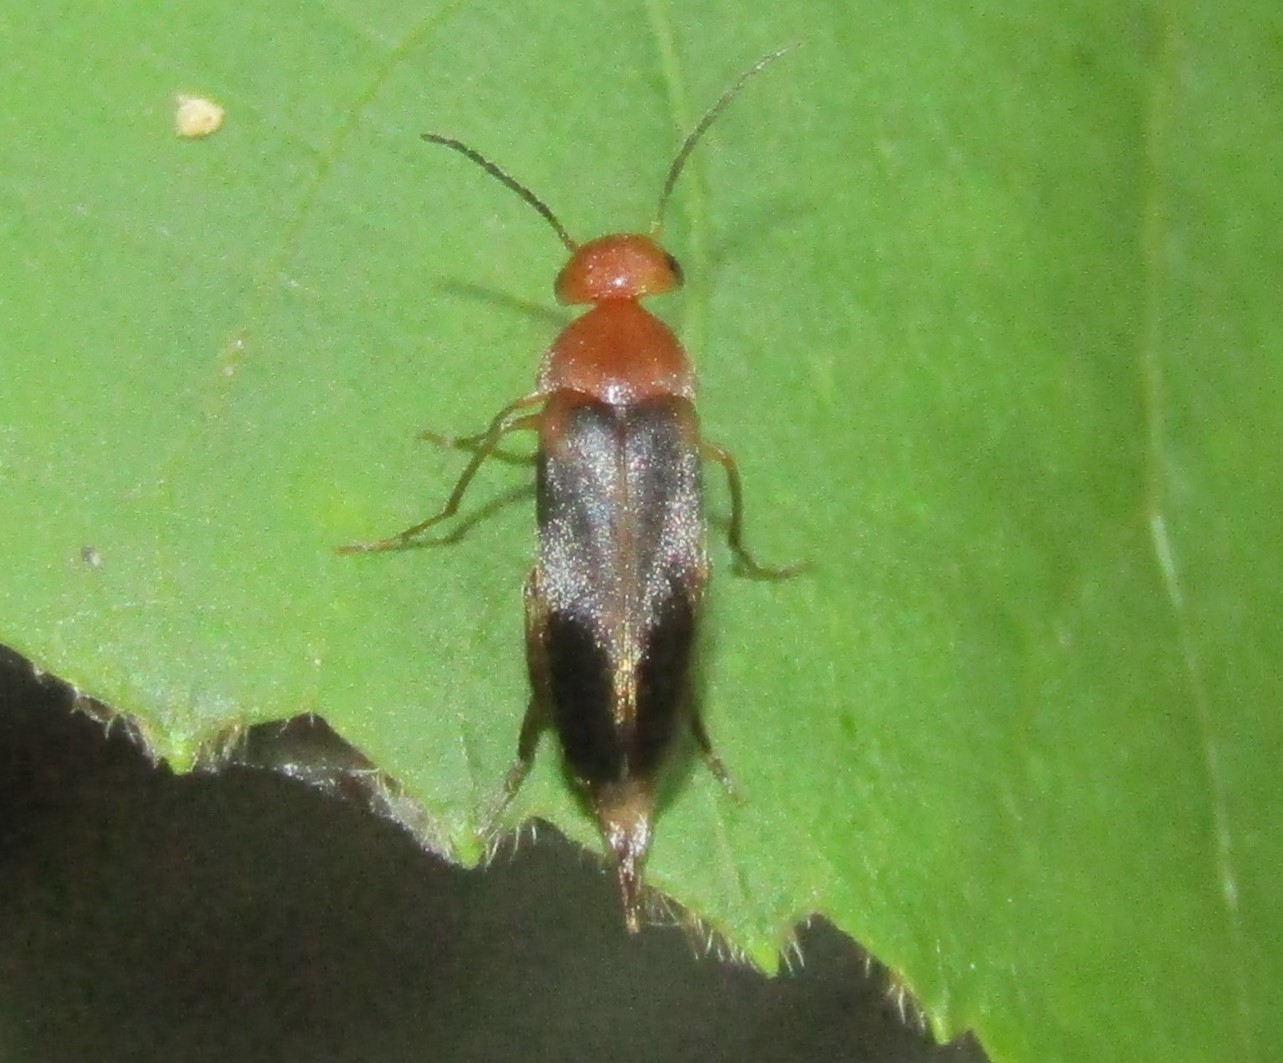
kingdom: Animalia
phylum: Arthropoda
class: Insecta
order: Coleoptera
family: Mordellidae
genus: Mordellistena
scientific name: Mordellistena fuscipennis
